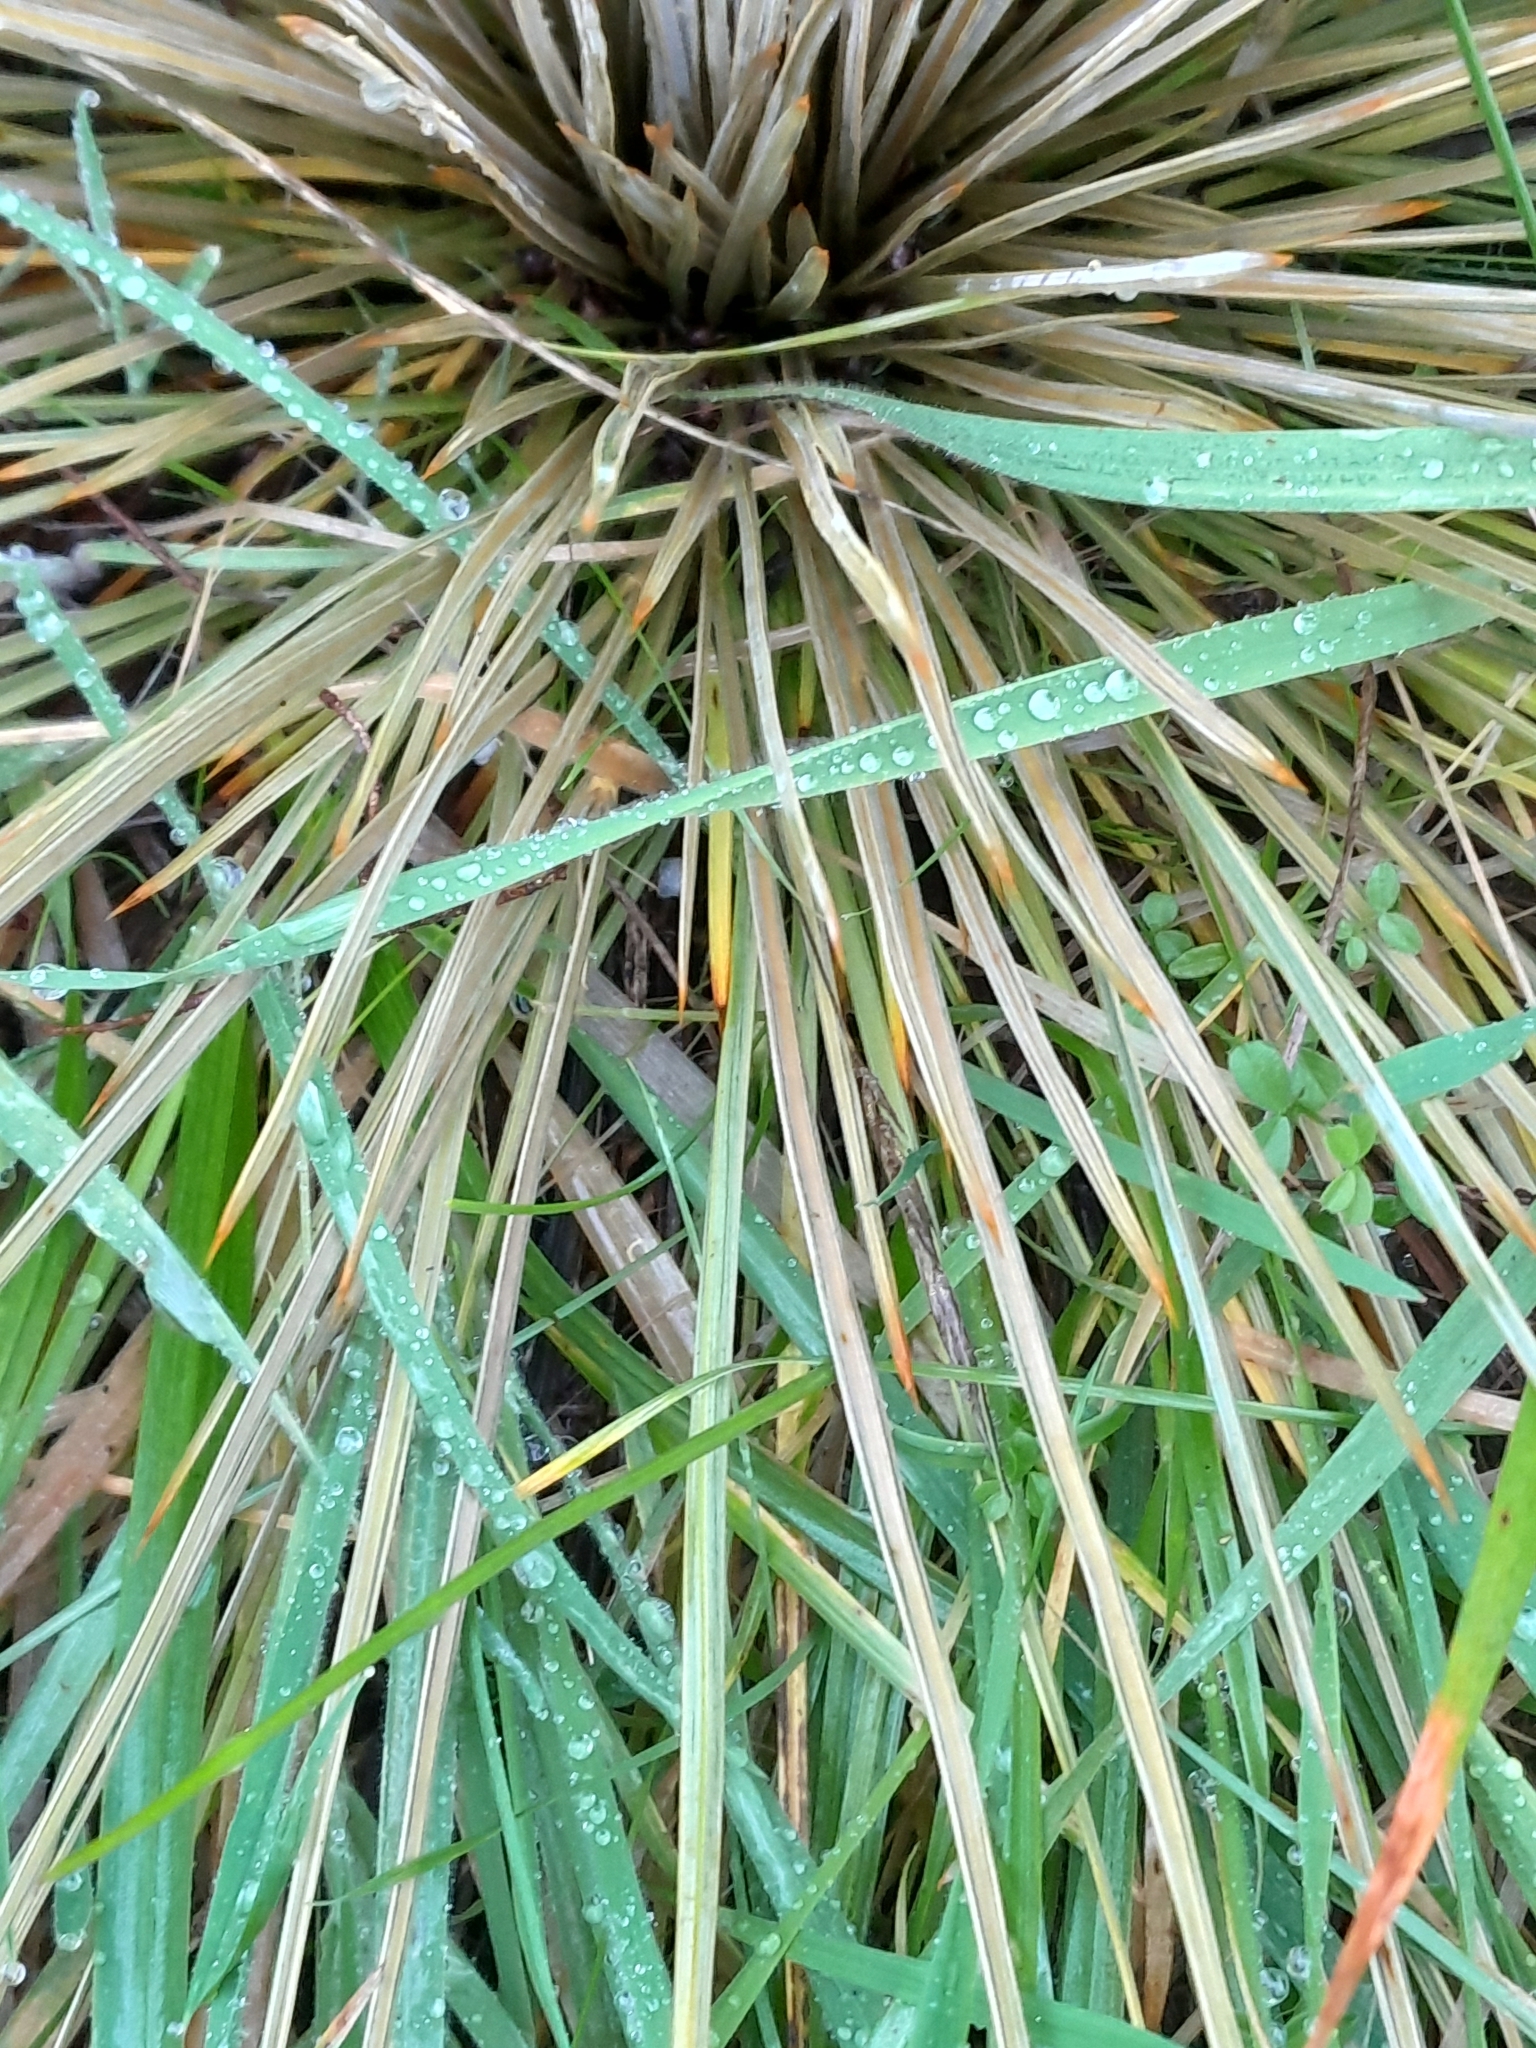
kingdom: Plantae
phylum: Tracheophyta
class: Magnoliopsida
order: Apiales
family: Apiaceae
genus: Aciphylla
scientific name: Aciphylla subflabellata
